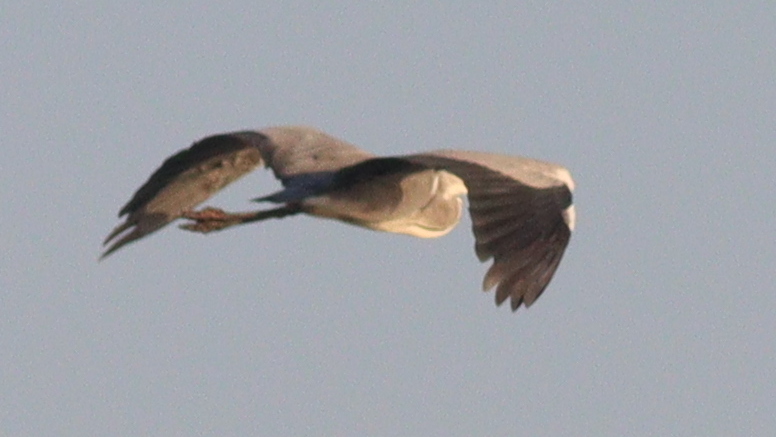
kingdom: Animalia
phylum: Chordata
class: Aves
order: Pelecaniformes
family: Ardeidae
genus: Ardea
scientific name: Ardea cinerea
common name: Grey heron
